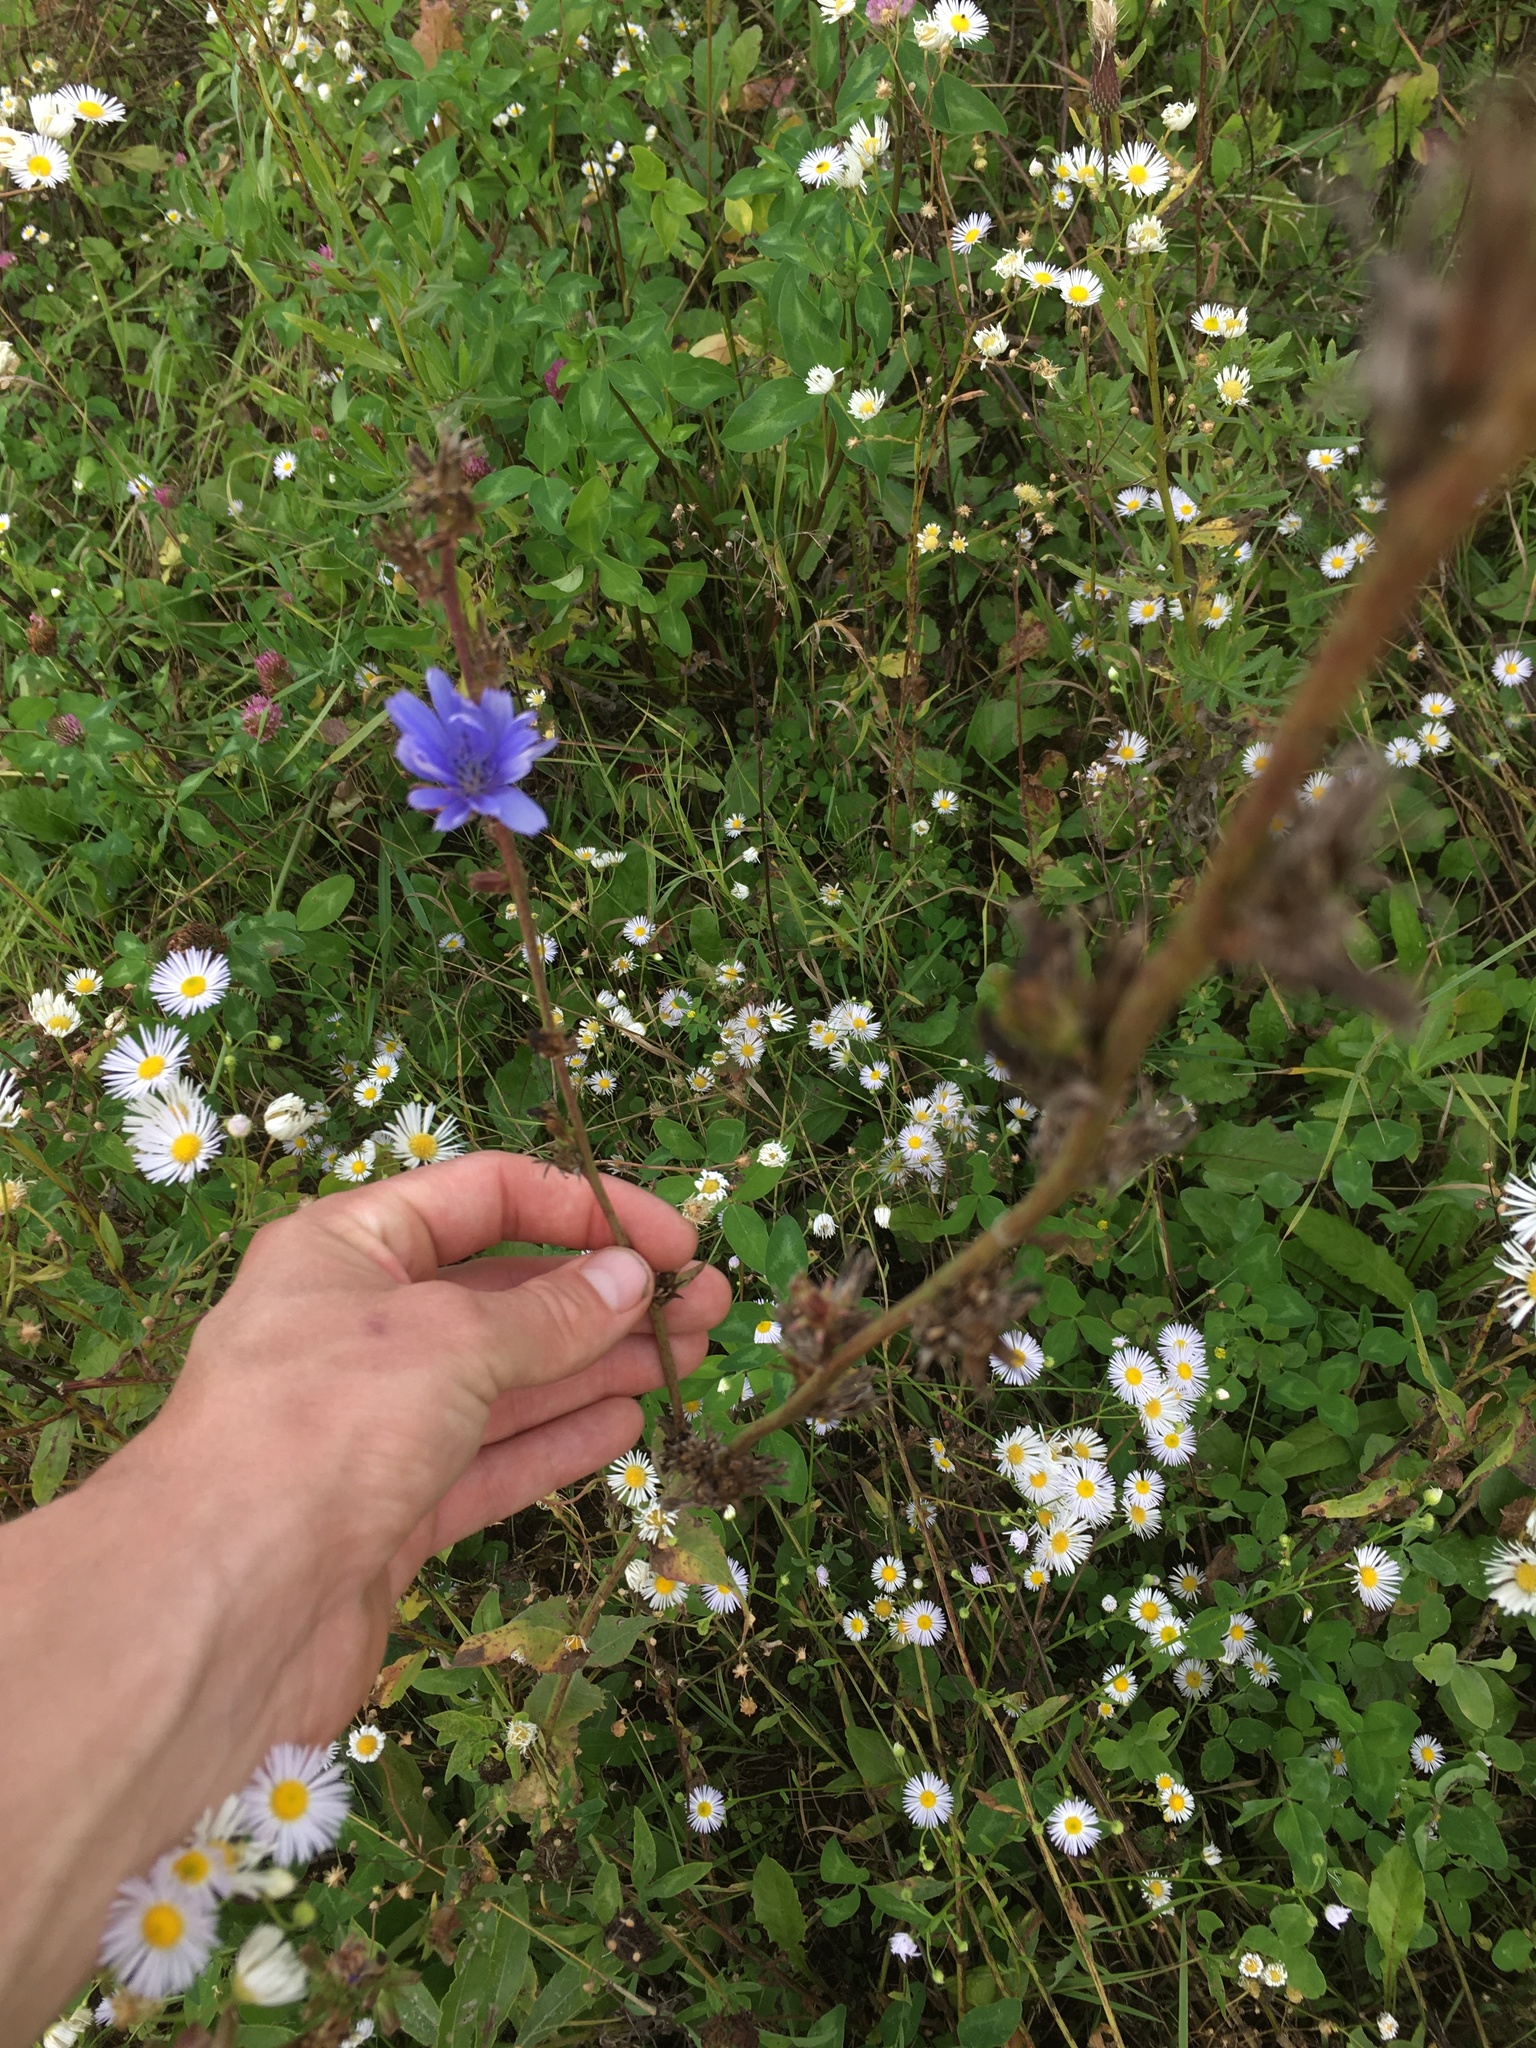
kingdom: Plantae
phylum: Tracheophyta
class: Magnoliopsida
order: Asterales
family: Asteraceae
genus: Cichorium
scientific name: Cichorium intybus
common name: Chicory
